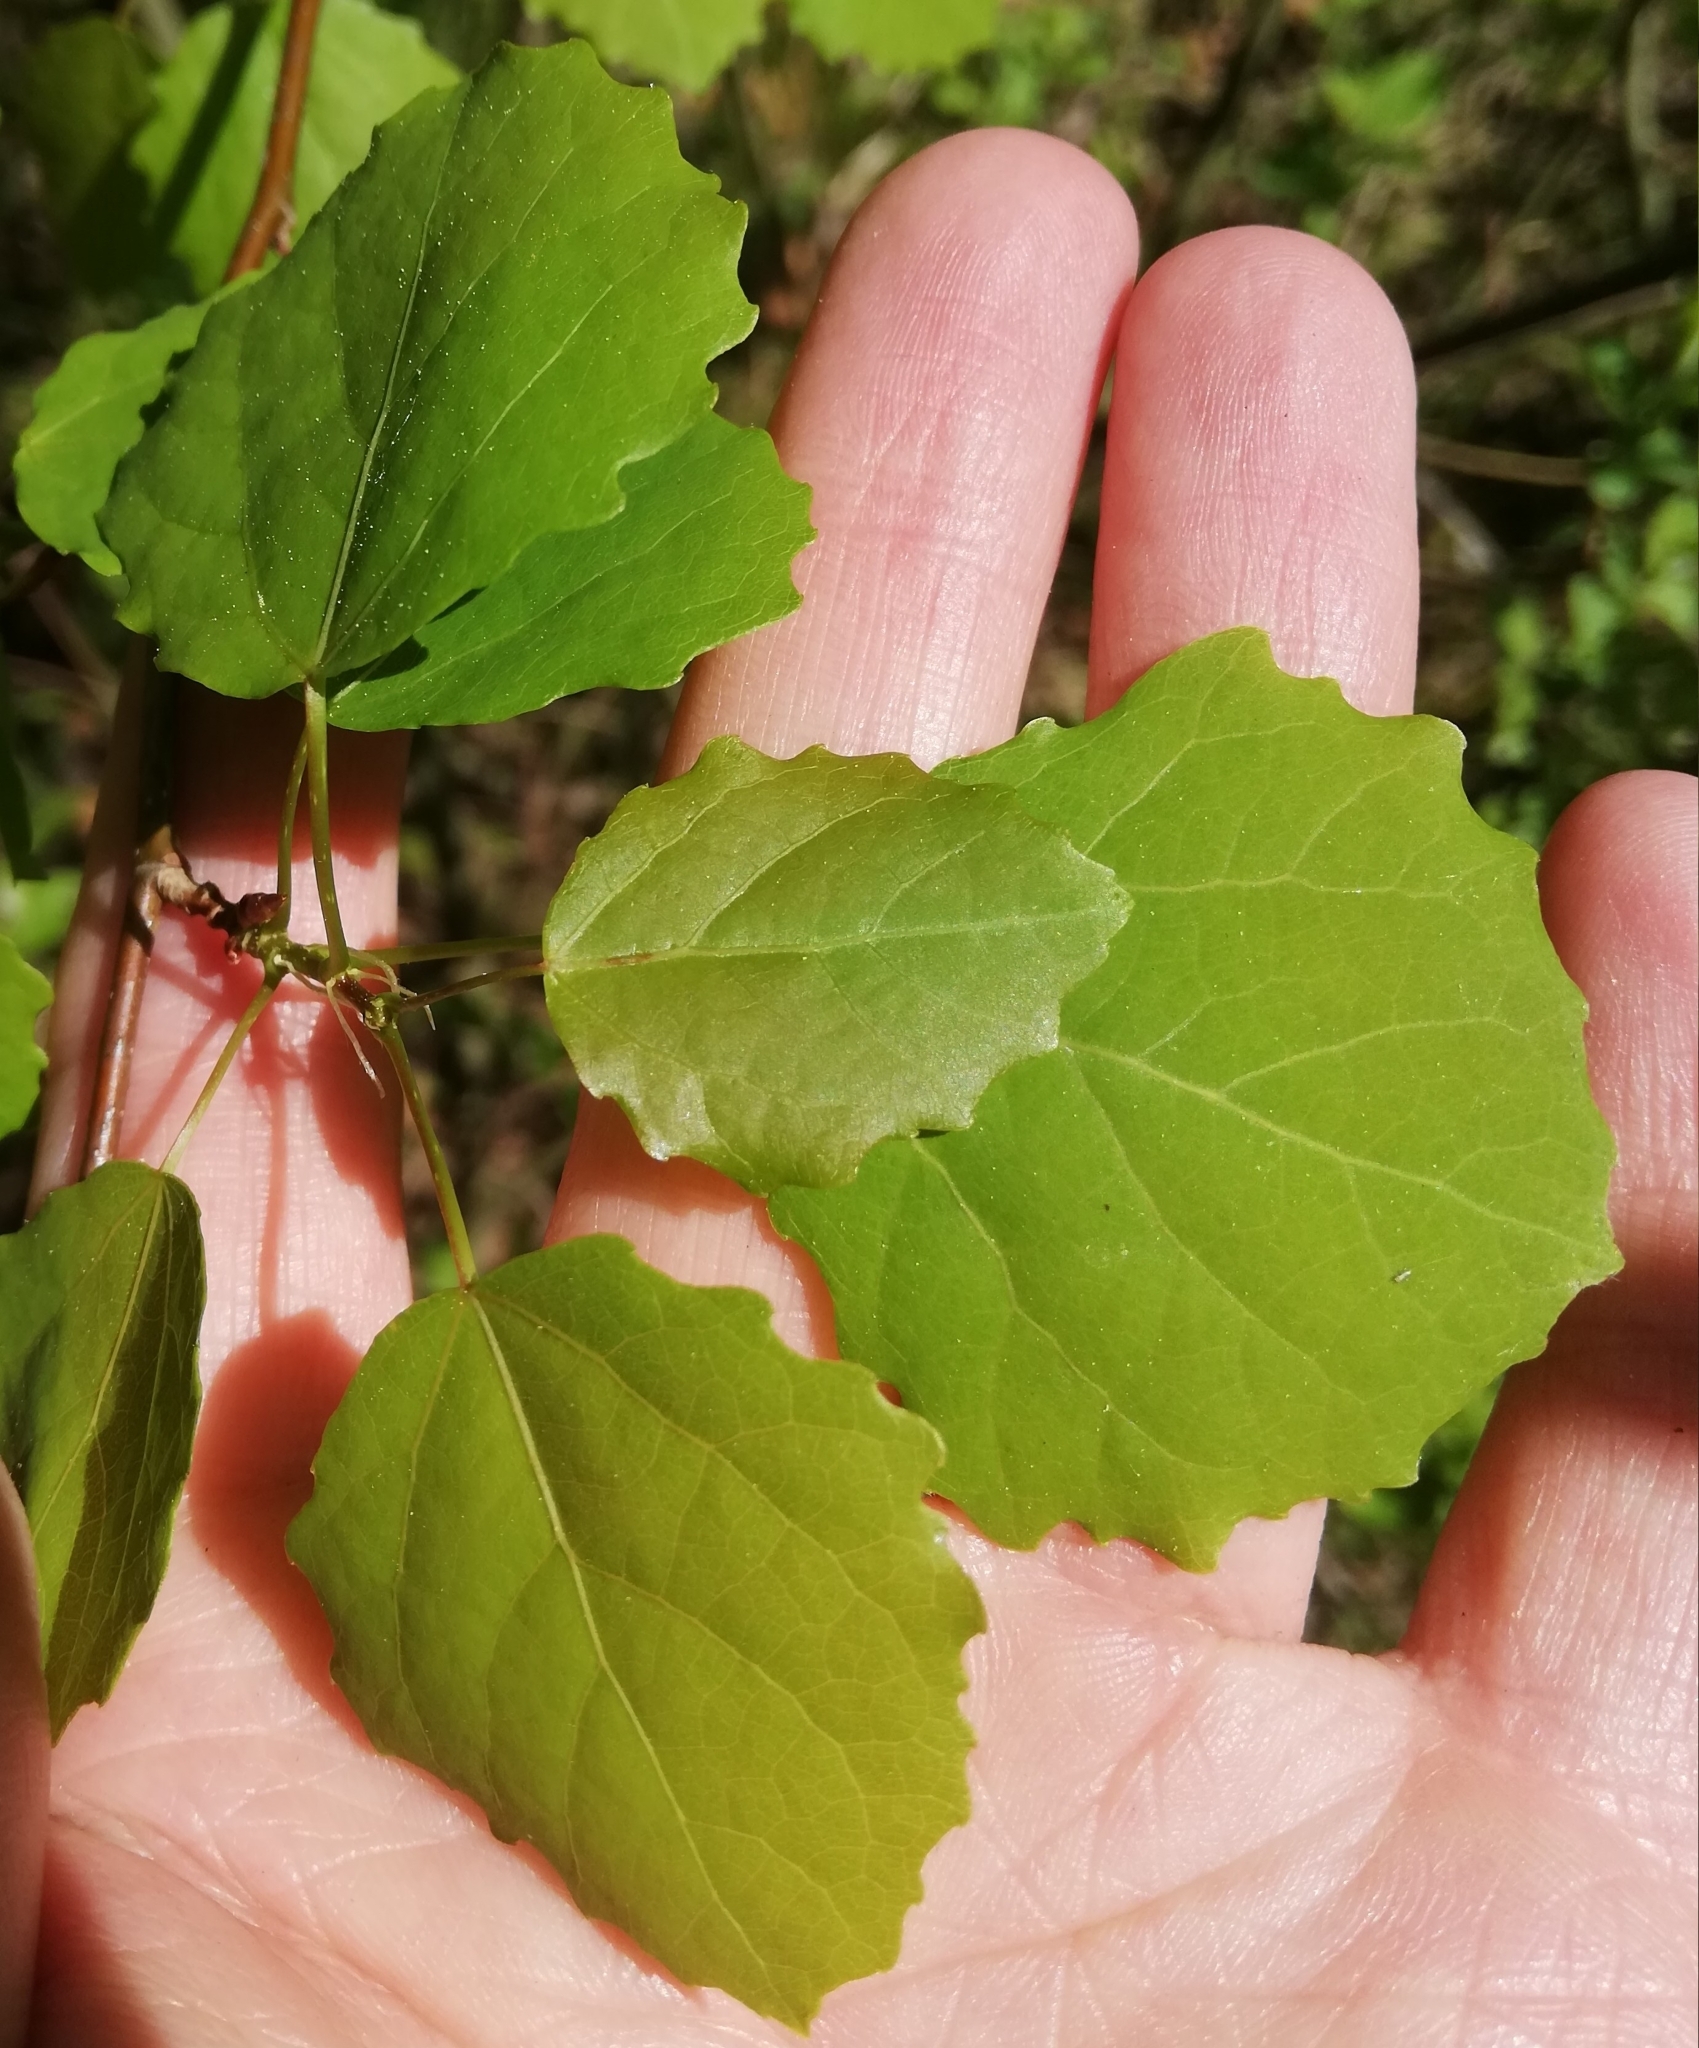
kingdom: Plantae
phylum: Tracheophyta
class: Magnoliopsida
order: Malpighiales
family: Salicaceae
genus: Populus
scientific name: Populus tremula
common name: European aspen
